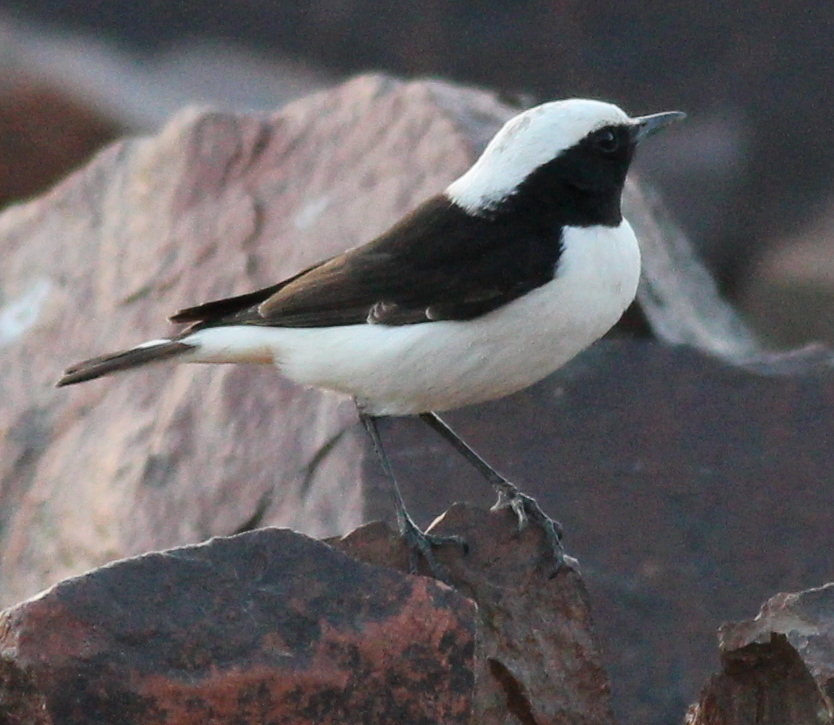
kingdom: Animalia
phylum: Chordata
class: Aves
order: Passeriformes
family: Muscicapidae
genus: Oenanthe
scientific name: Oenanthe lugens
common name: Mourning wheatear
